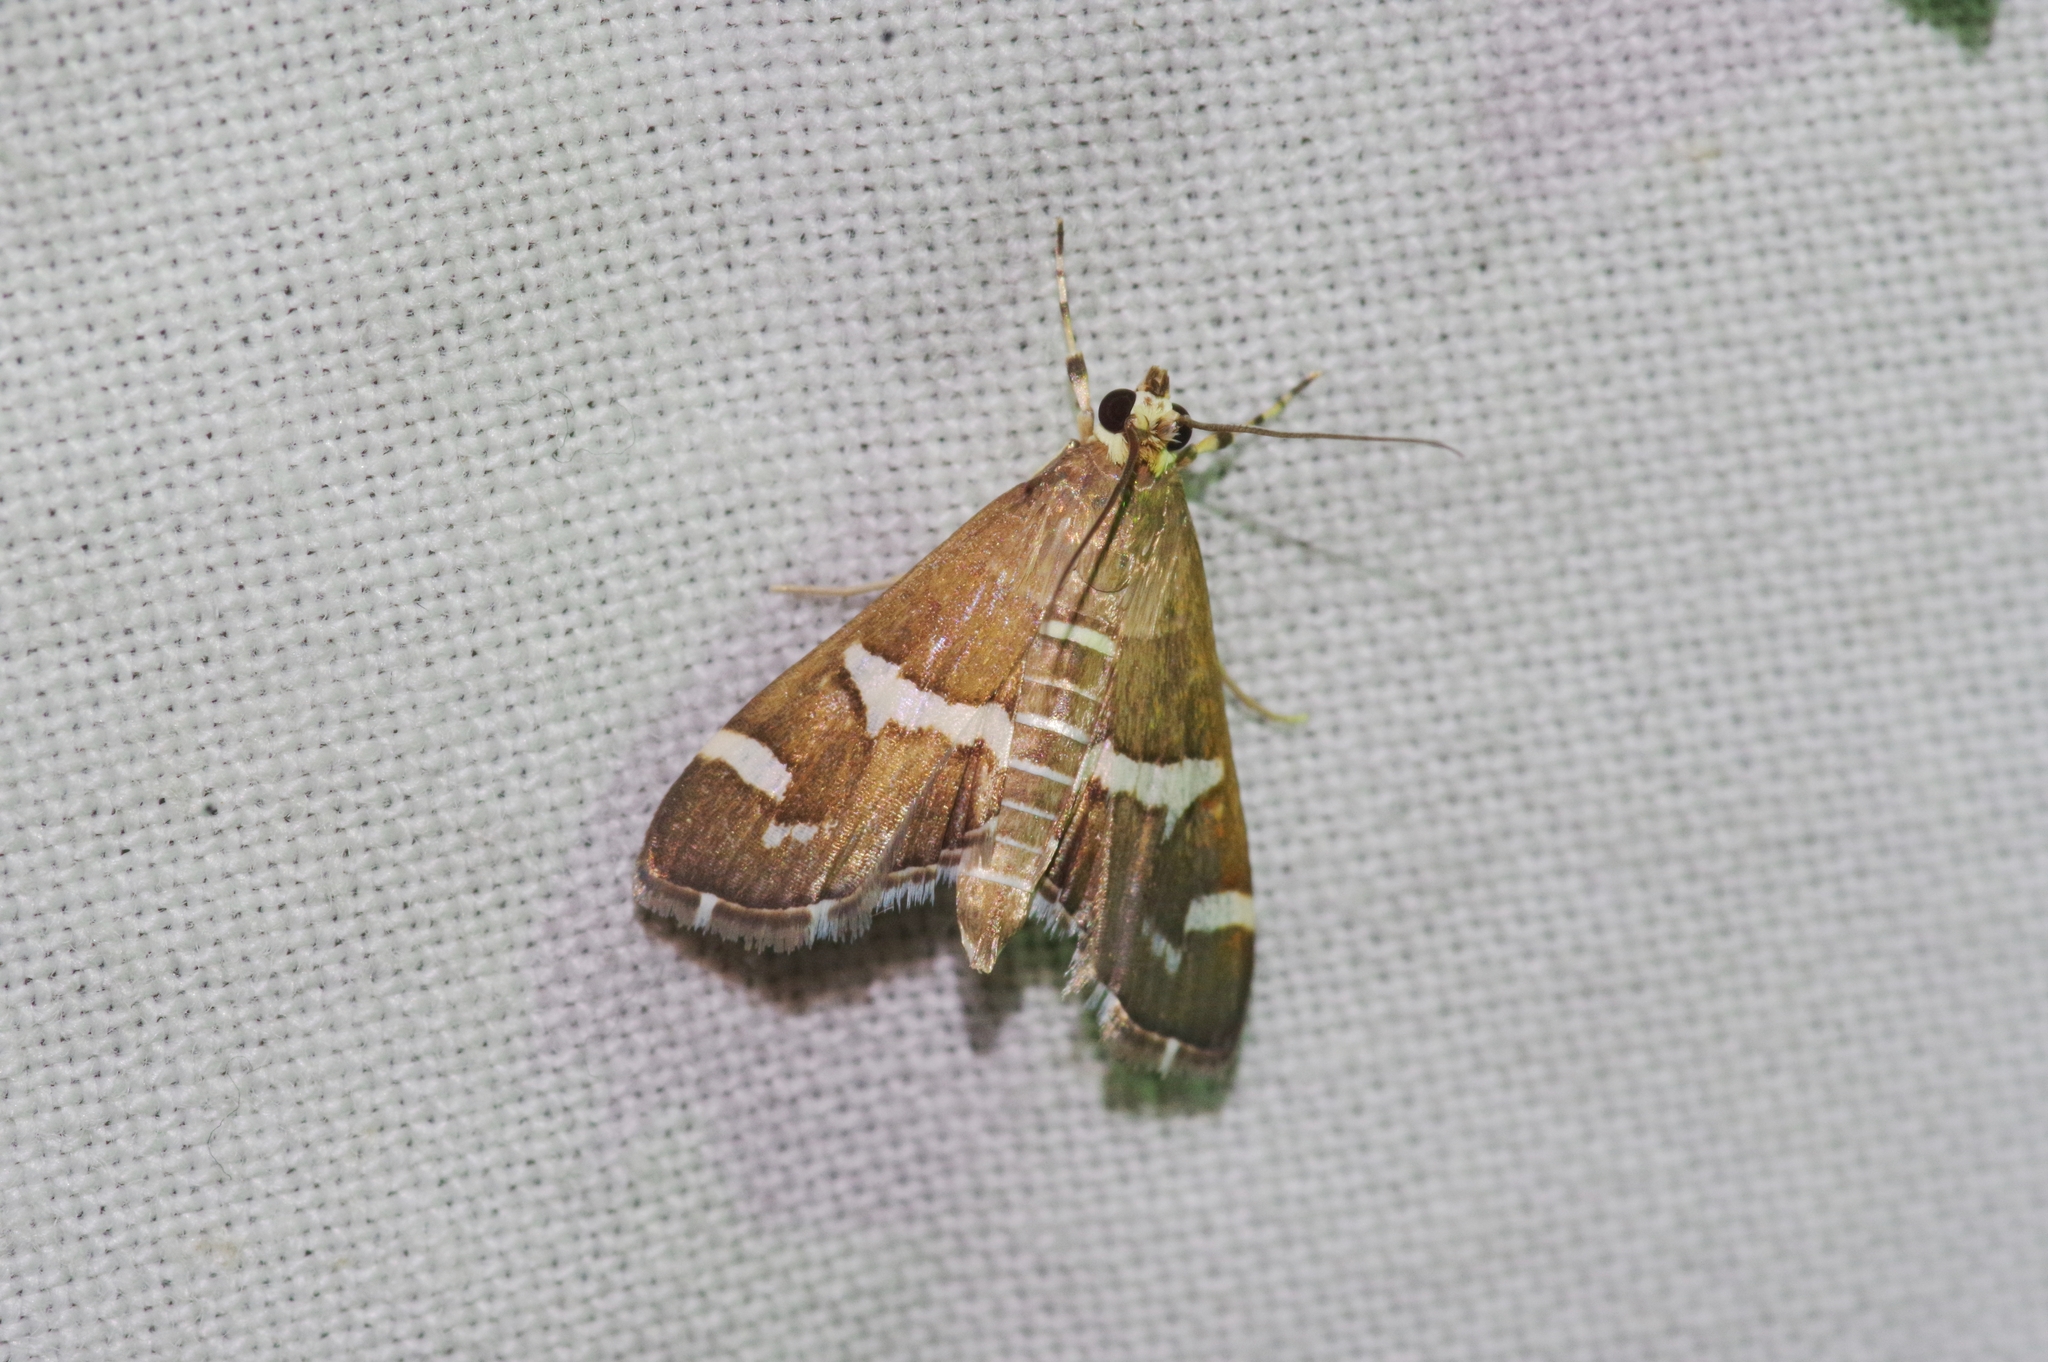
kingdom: Animalia
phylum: Arthropoda
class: Insecta
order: Lepidoptera
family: Crambidae
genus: Spoladea
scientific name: Spoladea recurvalis
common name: Beet webworm moth
